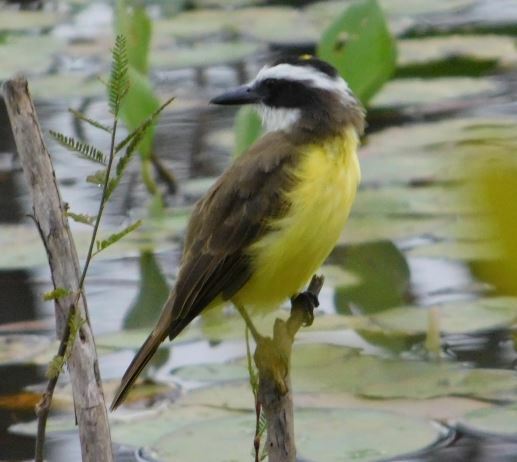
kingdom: Animalia
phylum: Chordata
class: Aves
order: Passeriformes
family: Tyrannidae
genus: Pitangus
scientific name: Pitangus sulphuratus
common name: Great kiskadee
